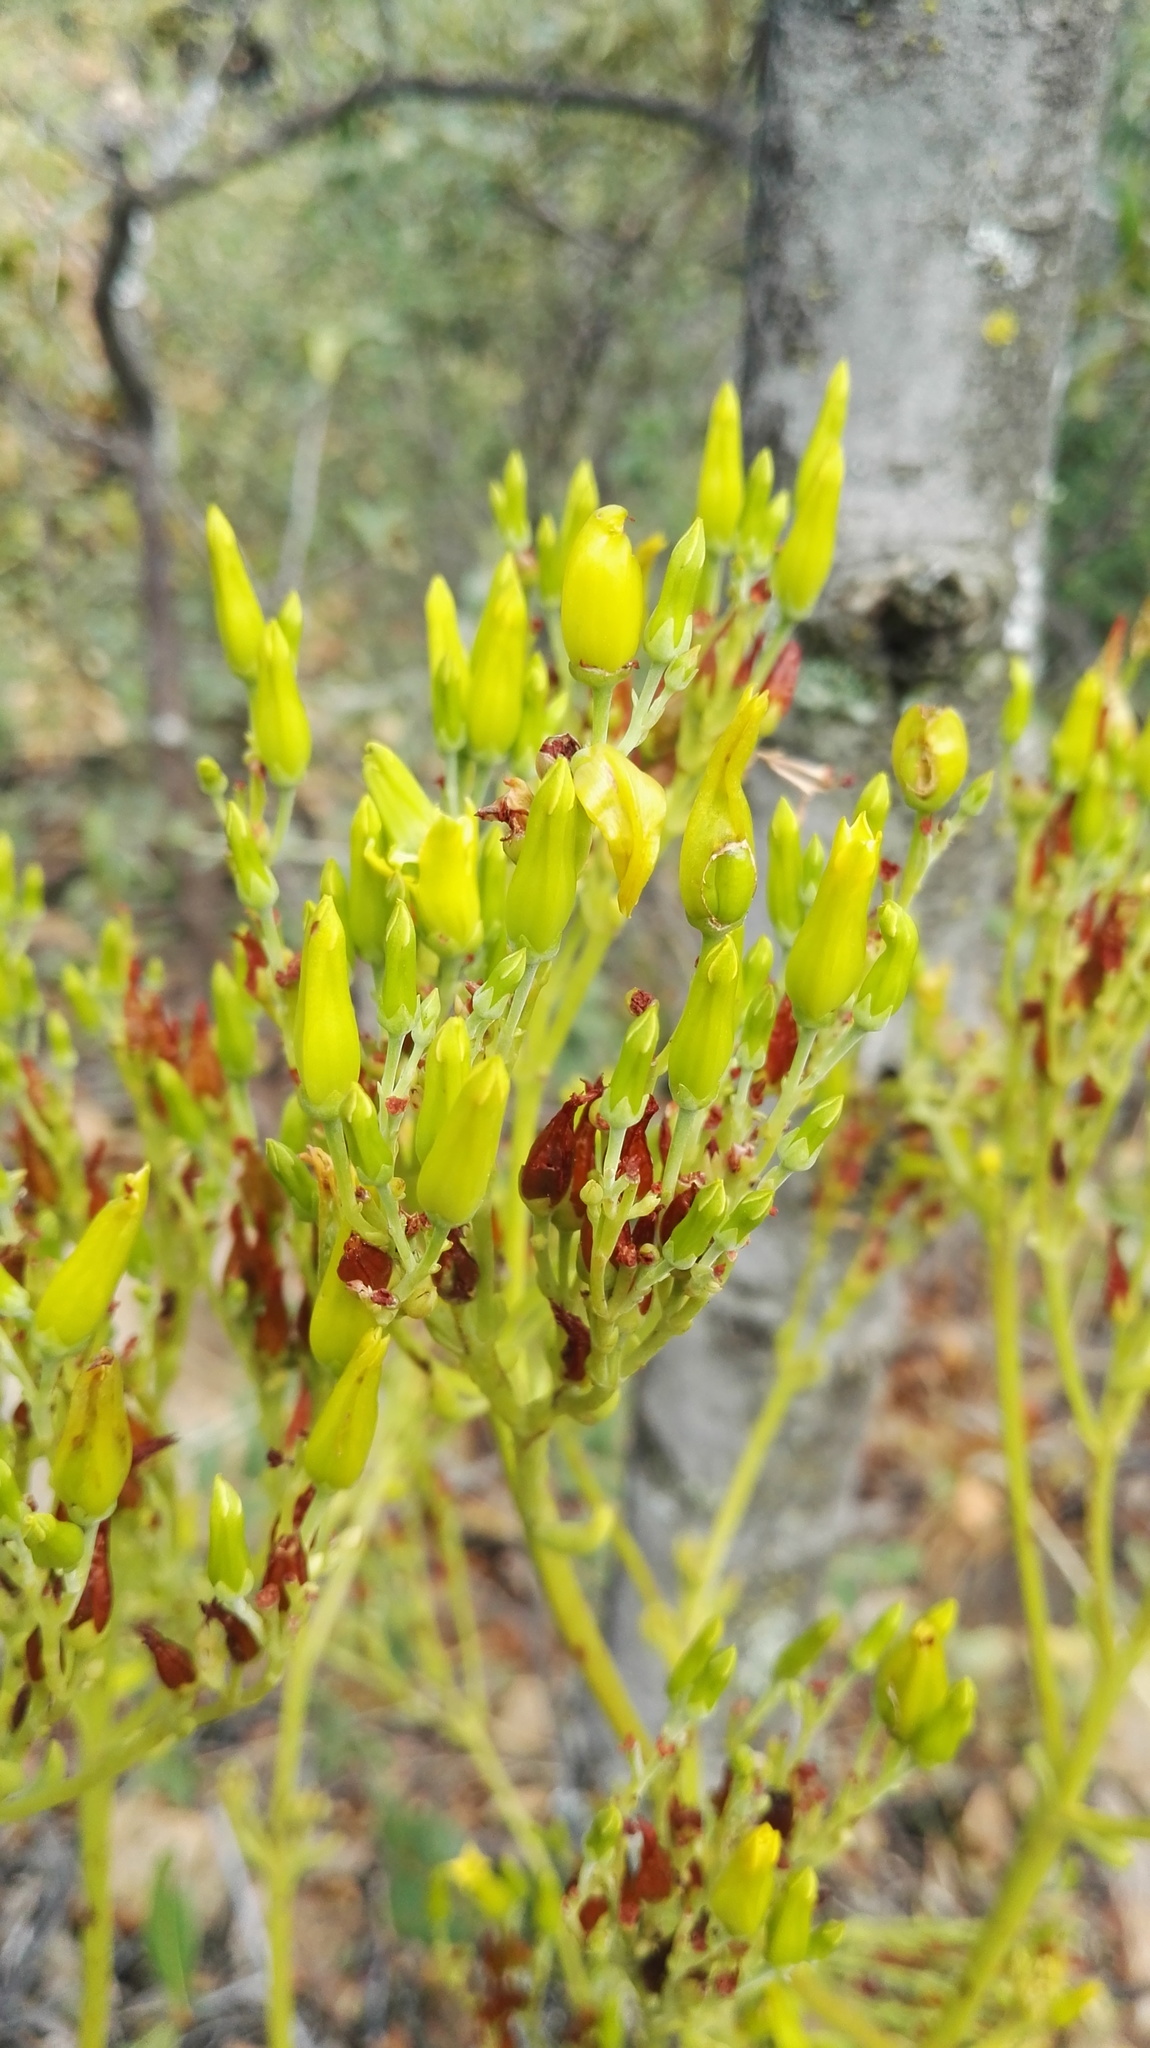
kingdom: Plantae
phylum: Tracheophyta
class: Magnoliopsida
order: Saxifragales
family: Crassulaceae
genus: Kalanchoe
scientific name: Kalanchoe paniculata
